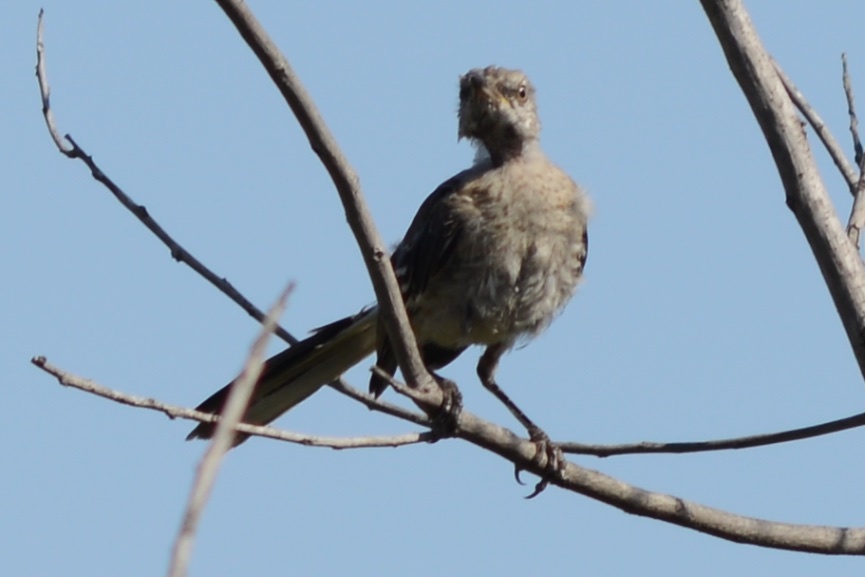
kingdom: Animalia
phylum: Chordata
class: Aves
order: Passeriformes
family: Mimidae
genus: Mimus
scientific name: Mimus polyglottos
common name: Northern mockingbird
